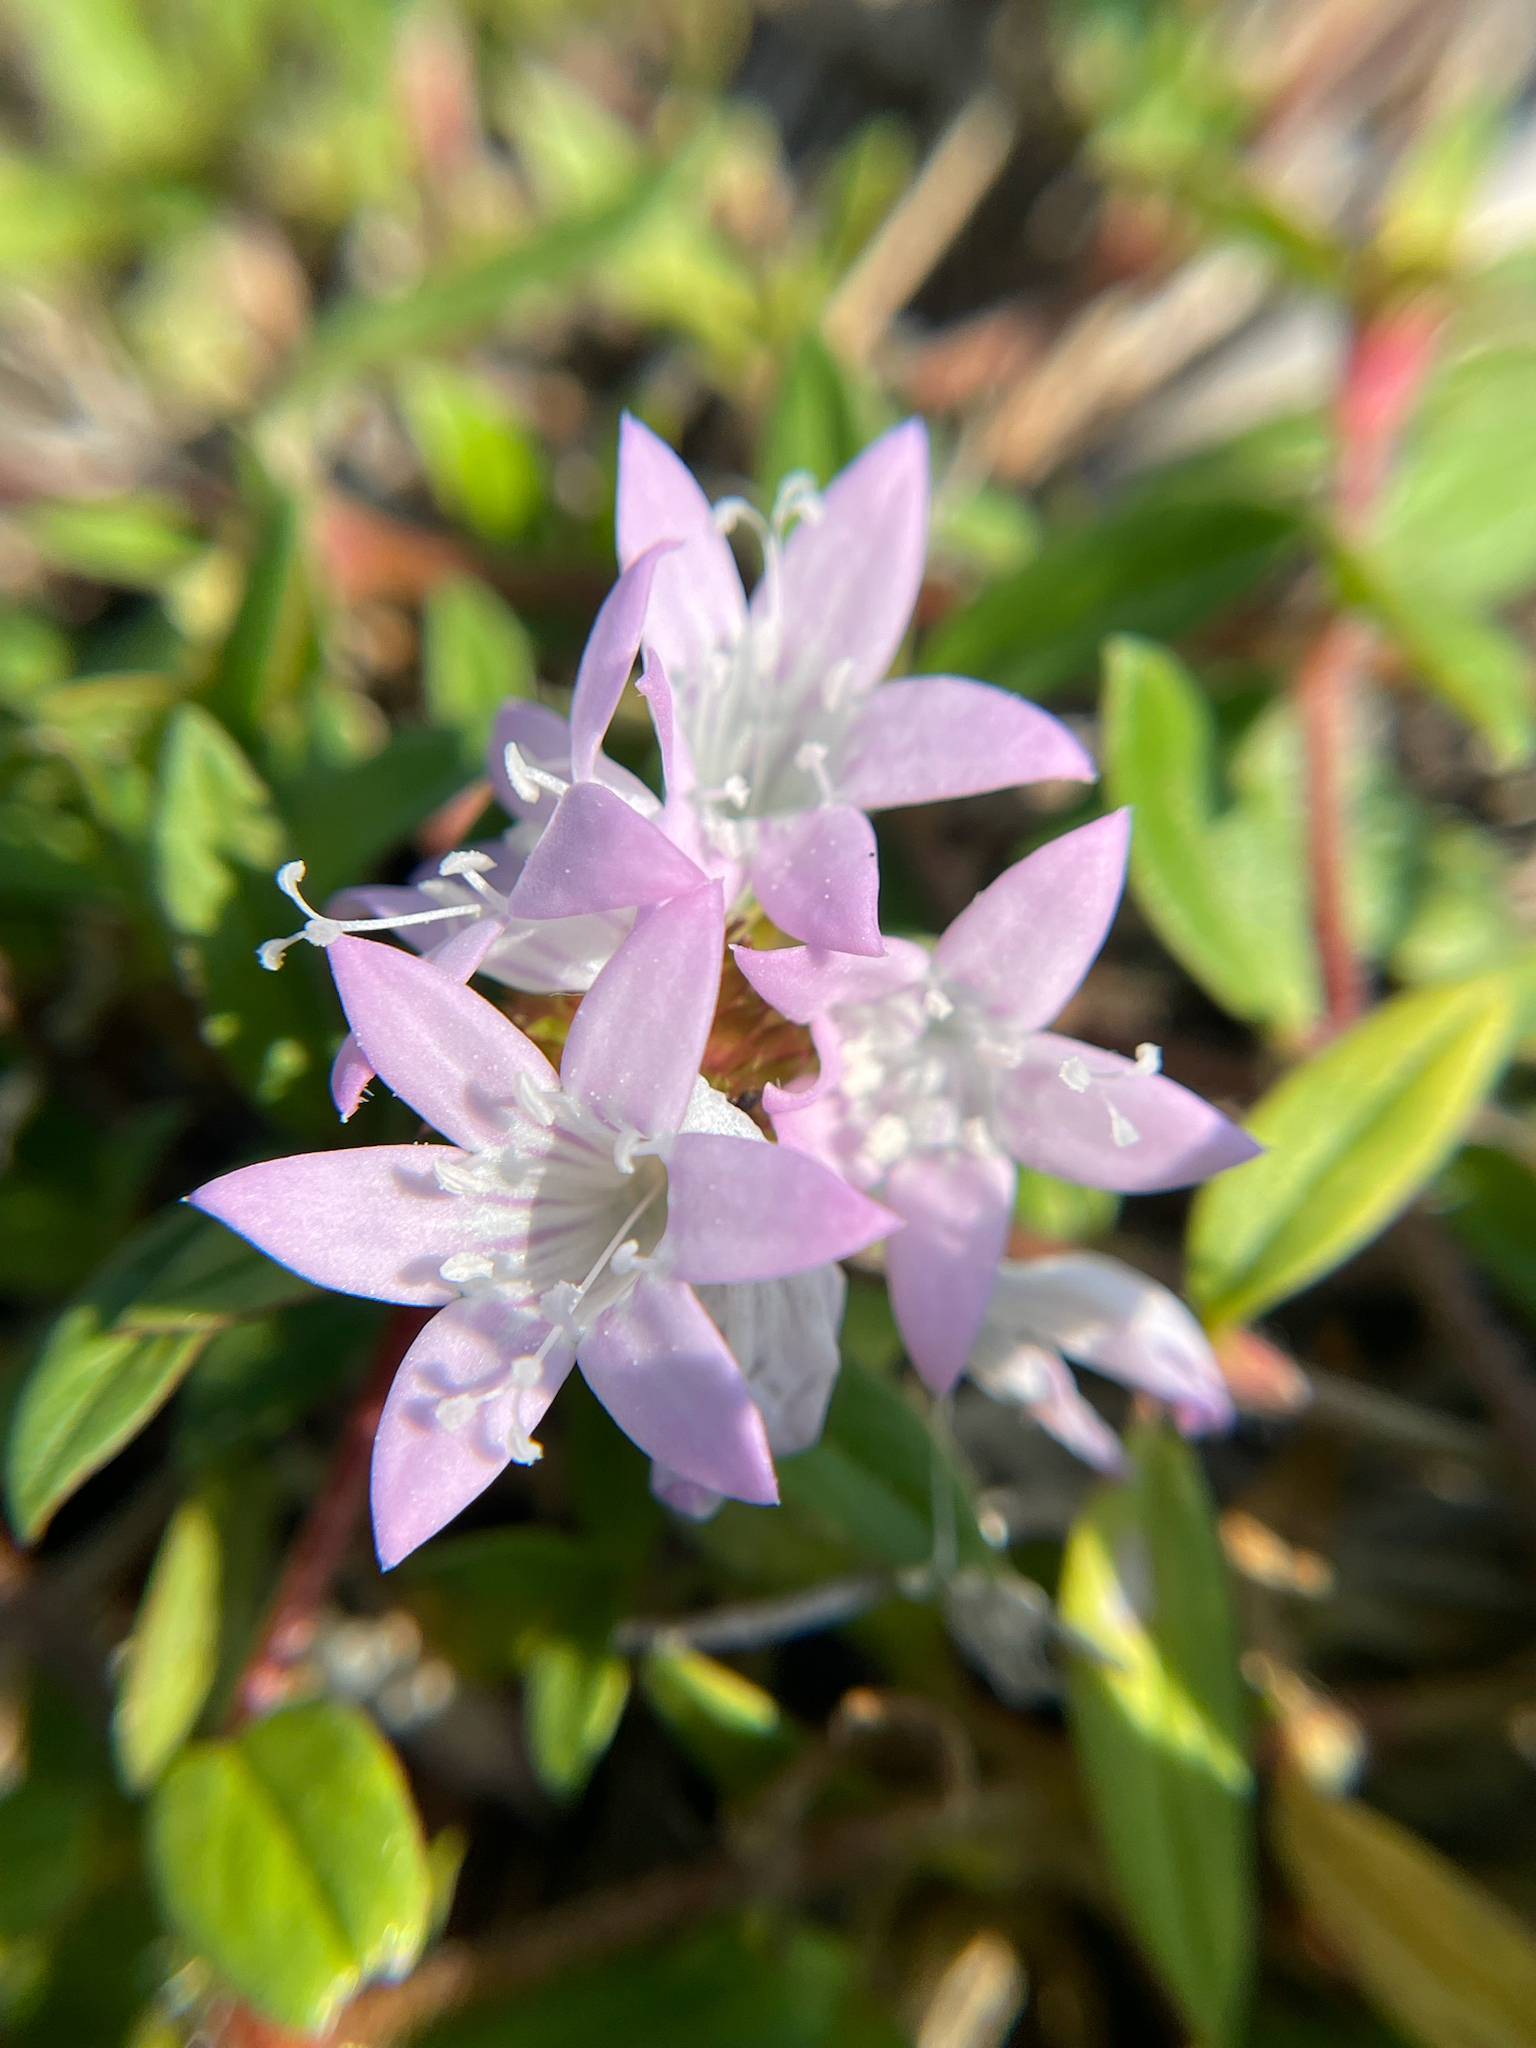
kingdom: Plantae
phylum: Tracheophyta
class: Magnoliopsida
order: Gentianales
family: Rubiaceae
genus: Richardia
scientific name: Richardia grandiflora
